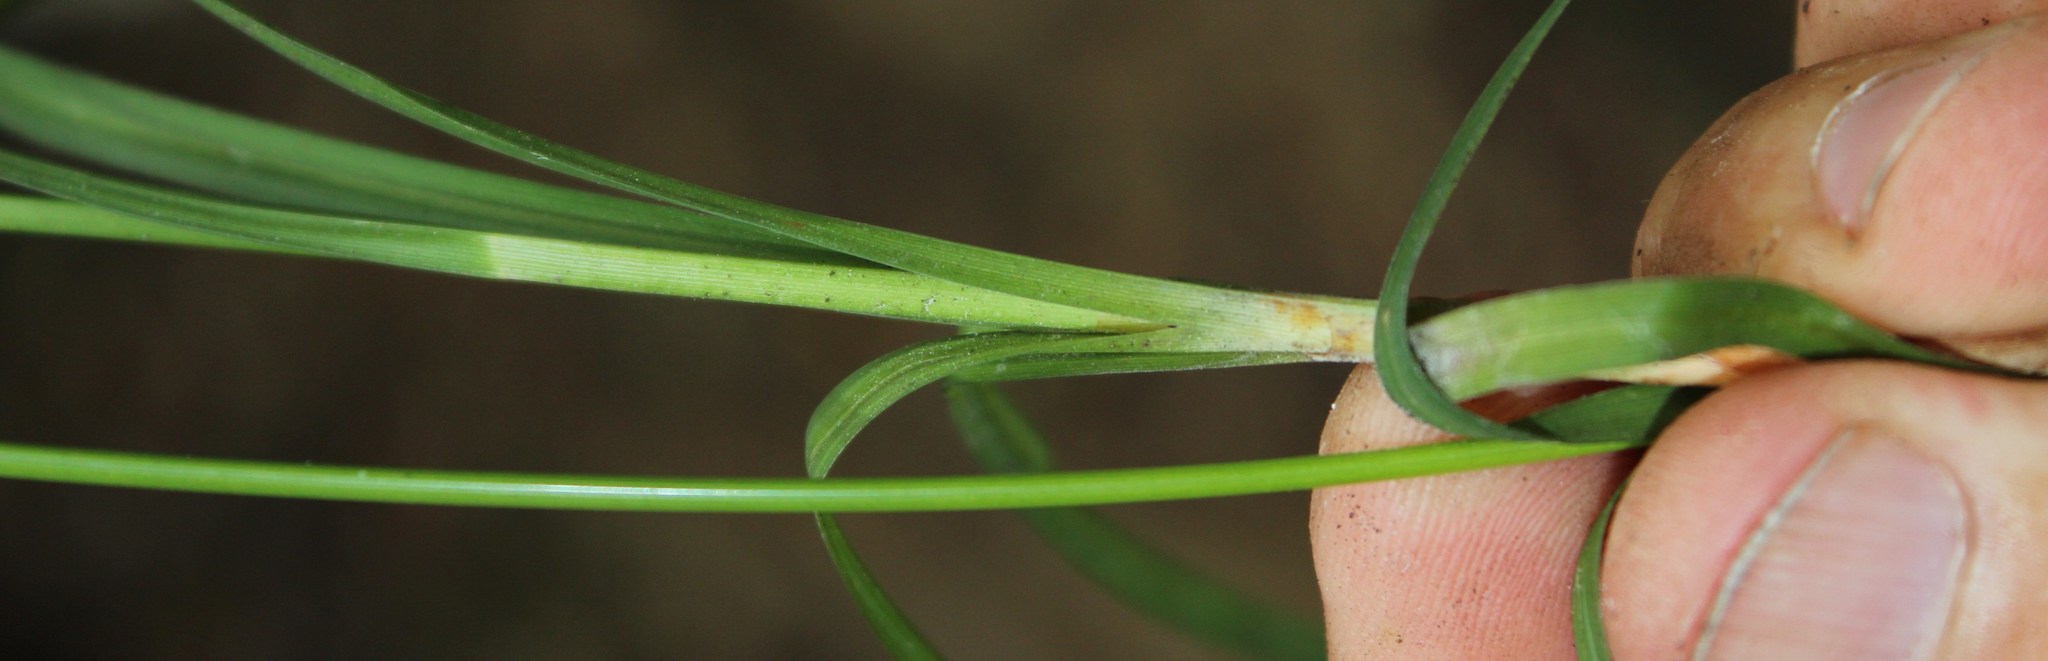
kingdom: Plantae
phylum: Tracheophyta
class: Liliopsida
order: Poales
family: Cyperaceae
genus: Carex
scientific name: Carex capensis
